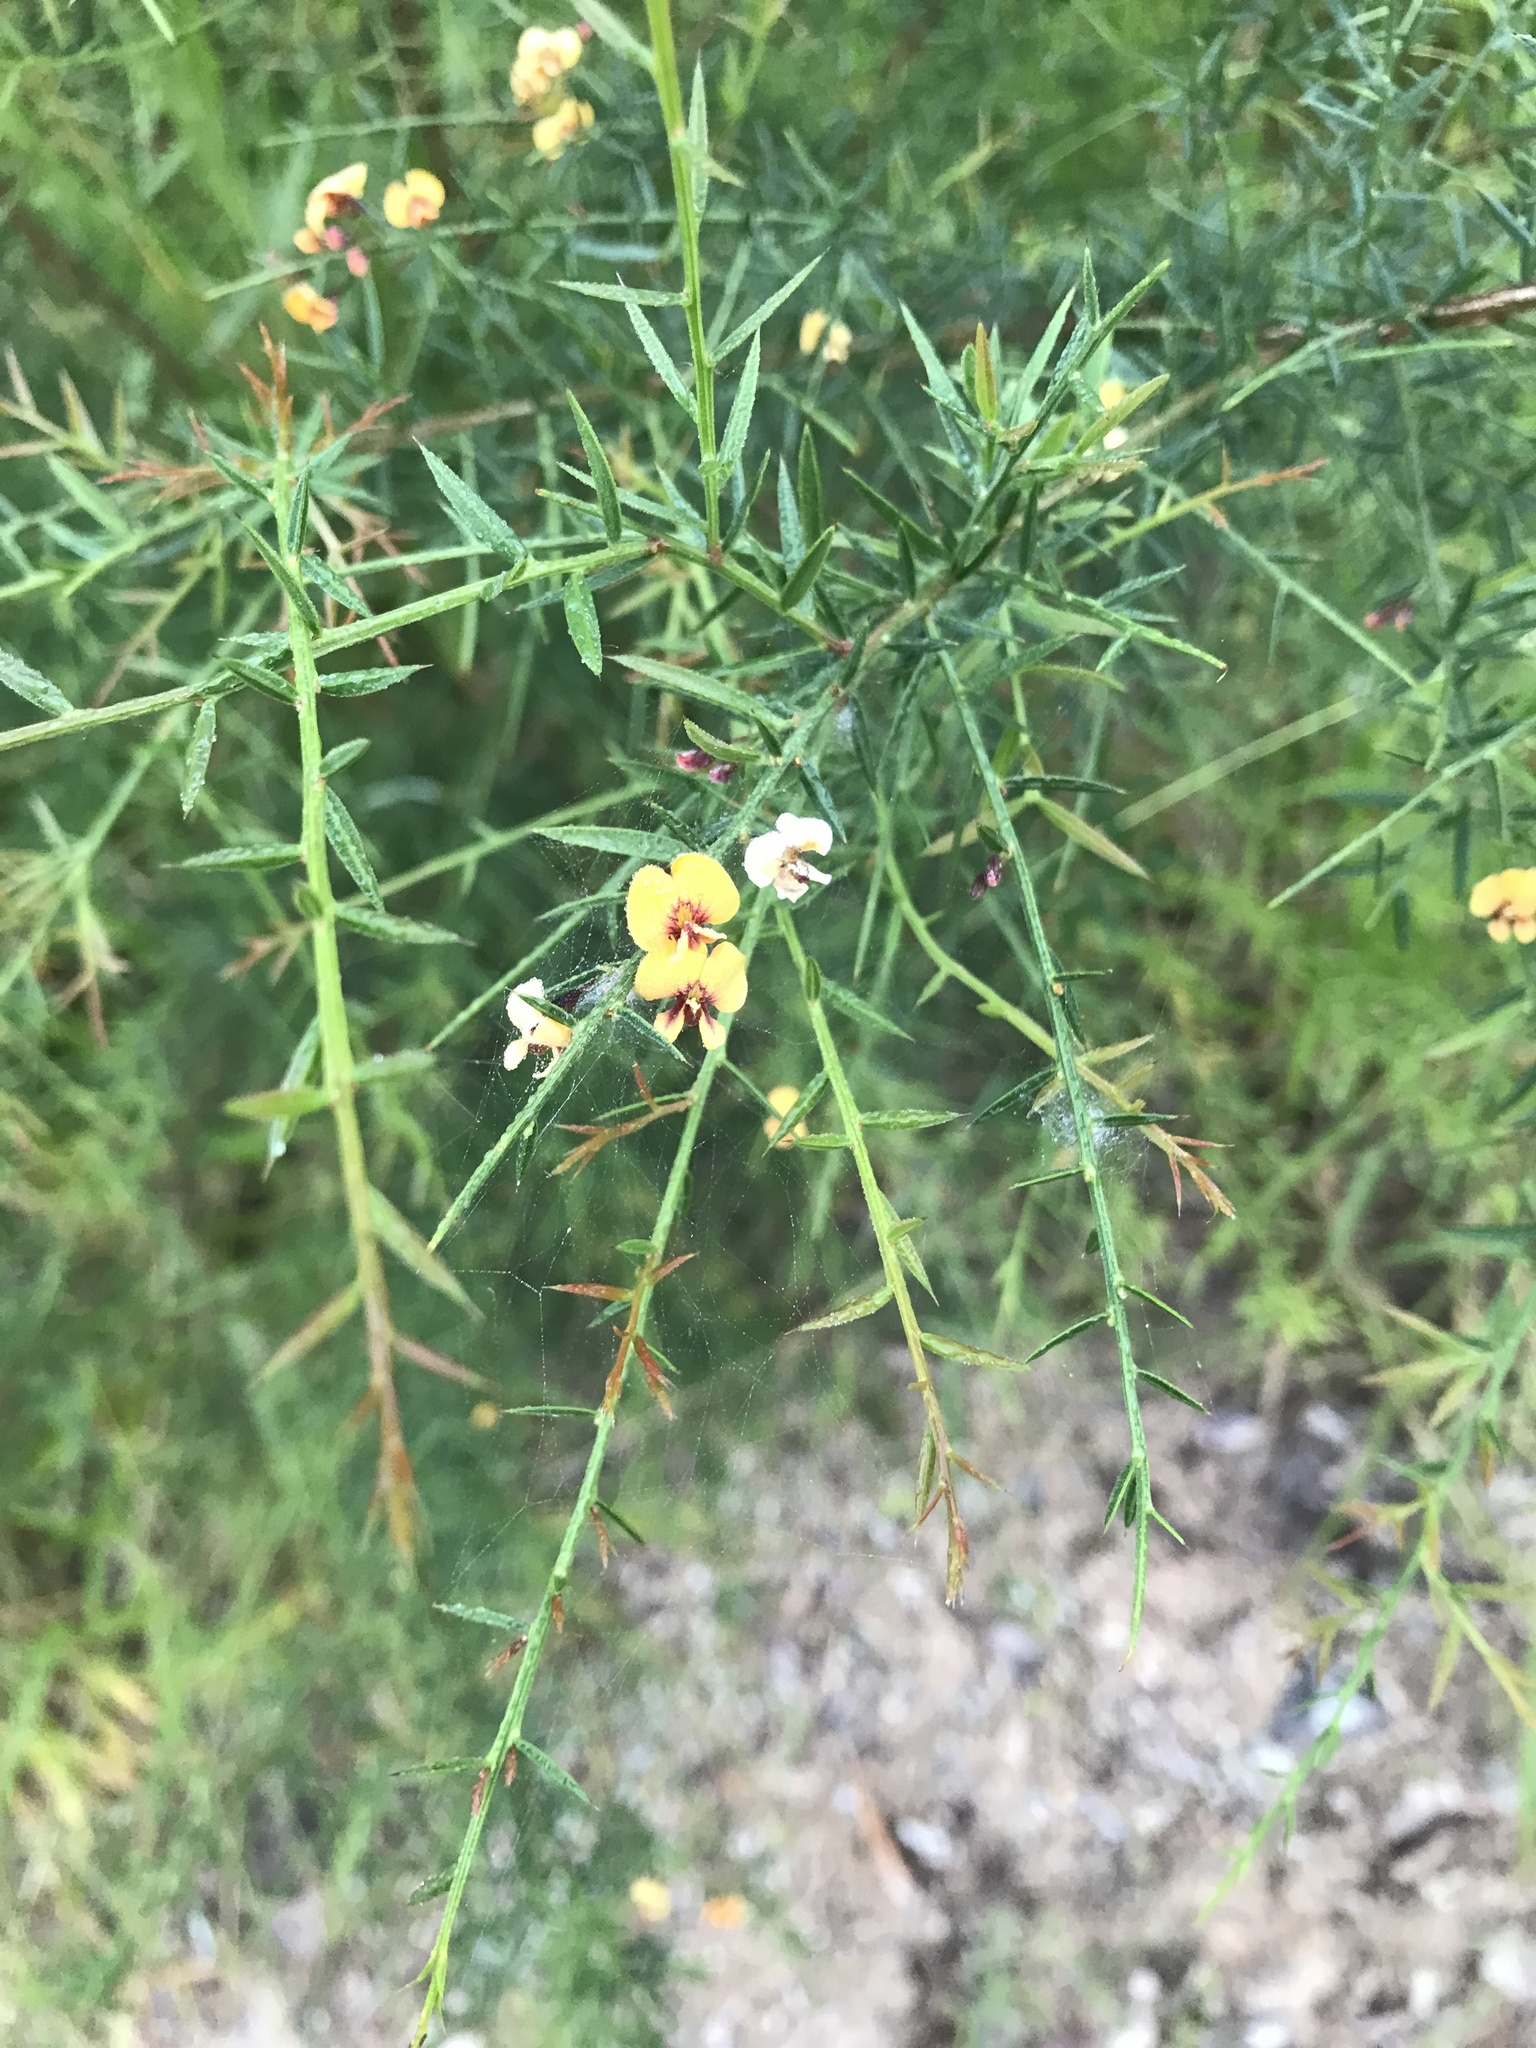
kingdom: Plantae
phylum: Tracheophyta
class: Magnoliopsida
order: Fabales
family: Fabaceae
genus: Daviesia
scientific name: Daviesia ulicifolia
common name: Gorse bitter-pea
